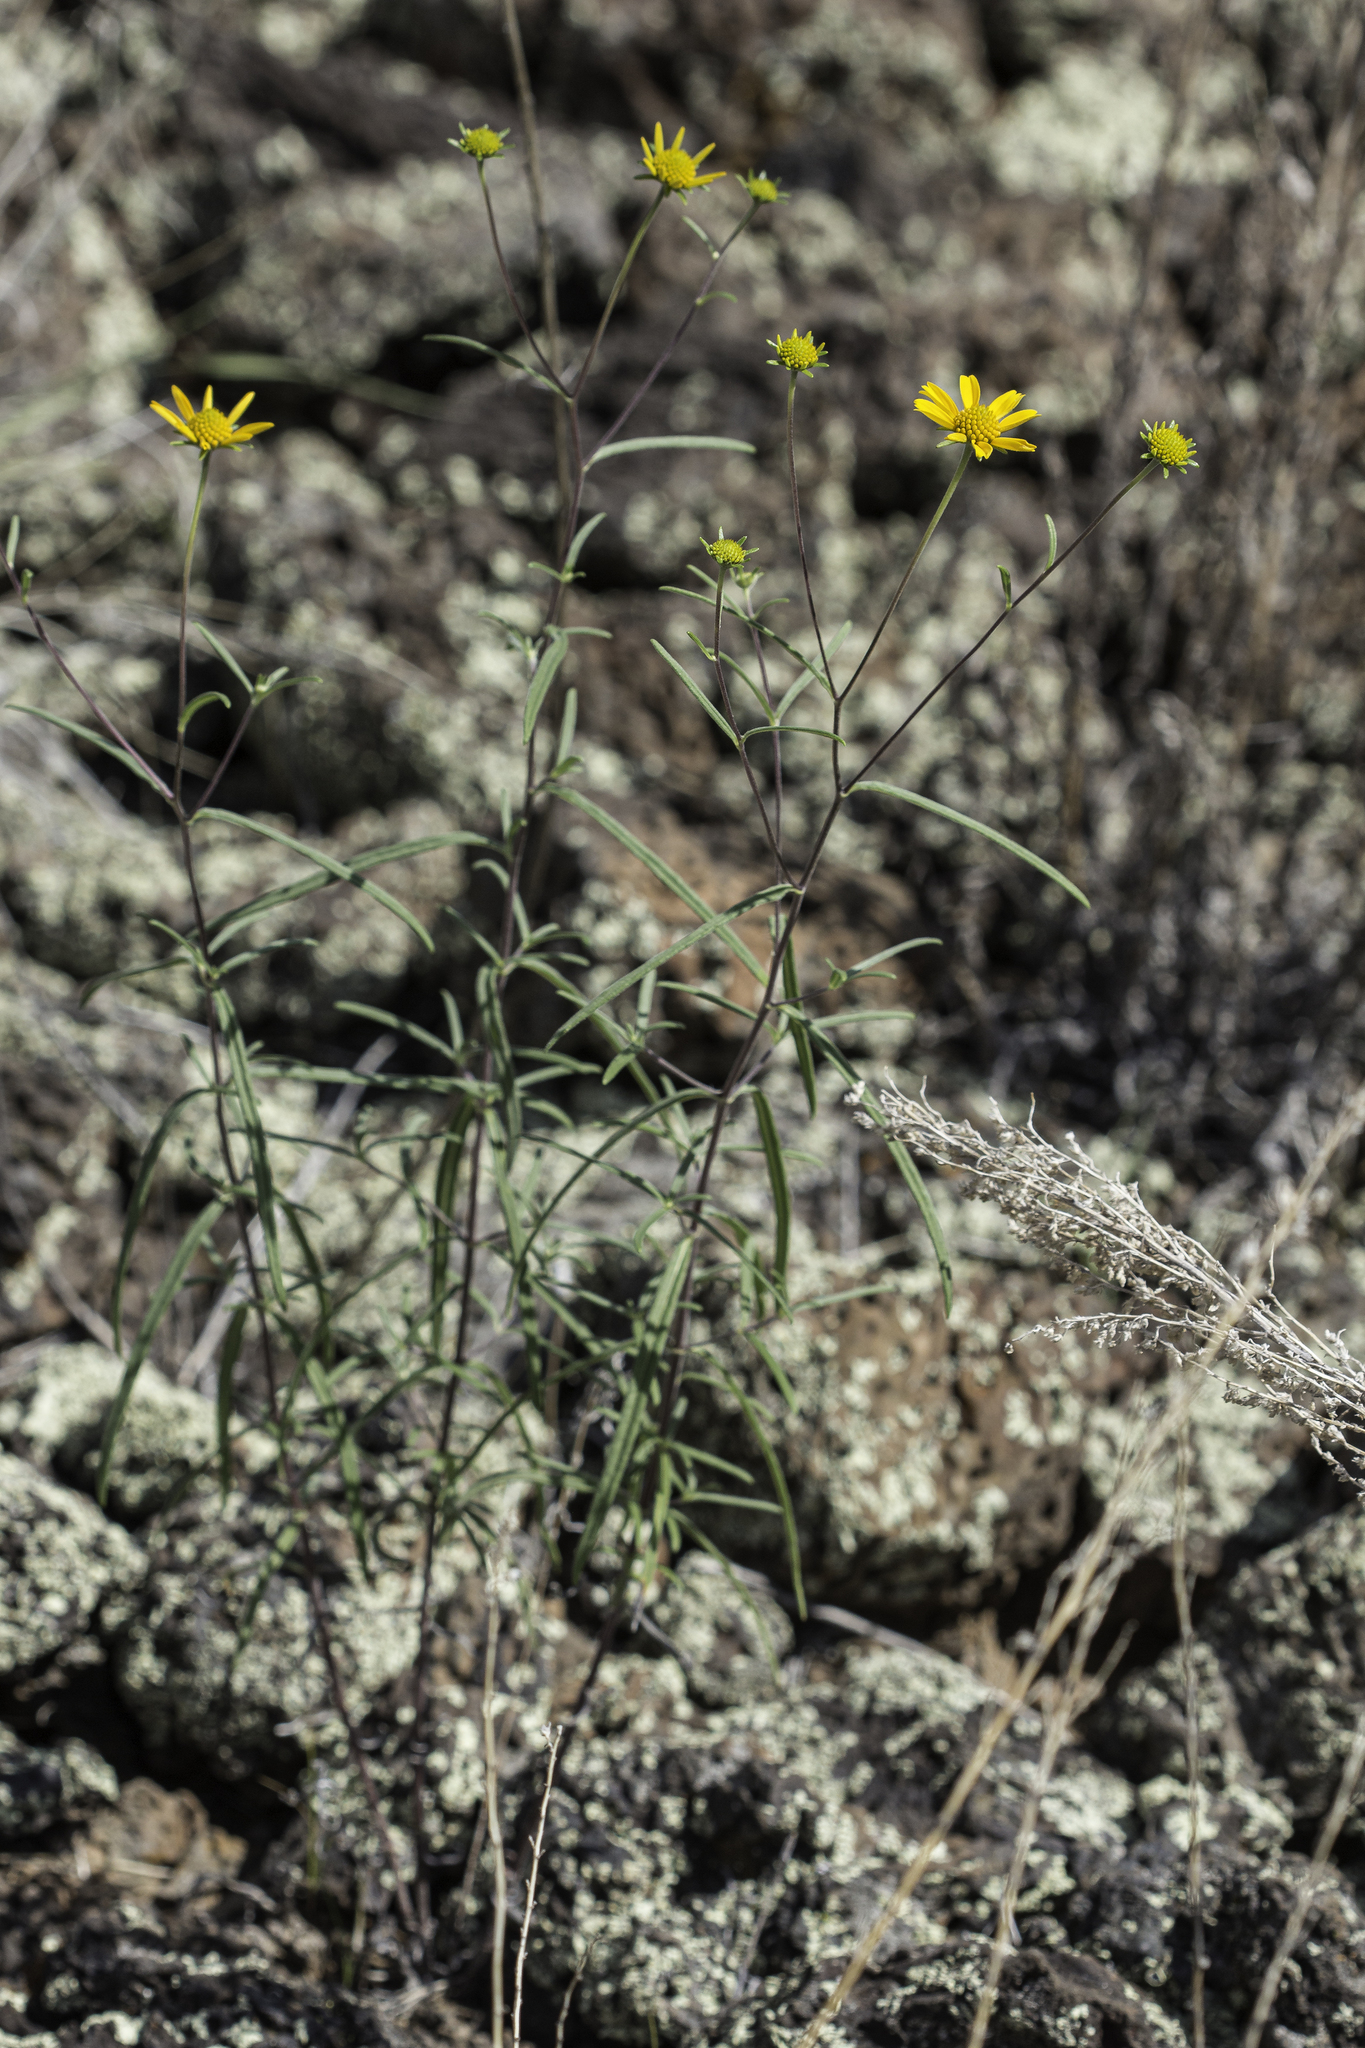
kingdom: Plantae
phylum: Tracheophyta
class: Magnoliopsida
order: Asterales
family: Asteraceae
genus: Heliomeris
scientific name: Heliomeris longifolia
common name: Longleaf false goldeneye
